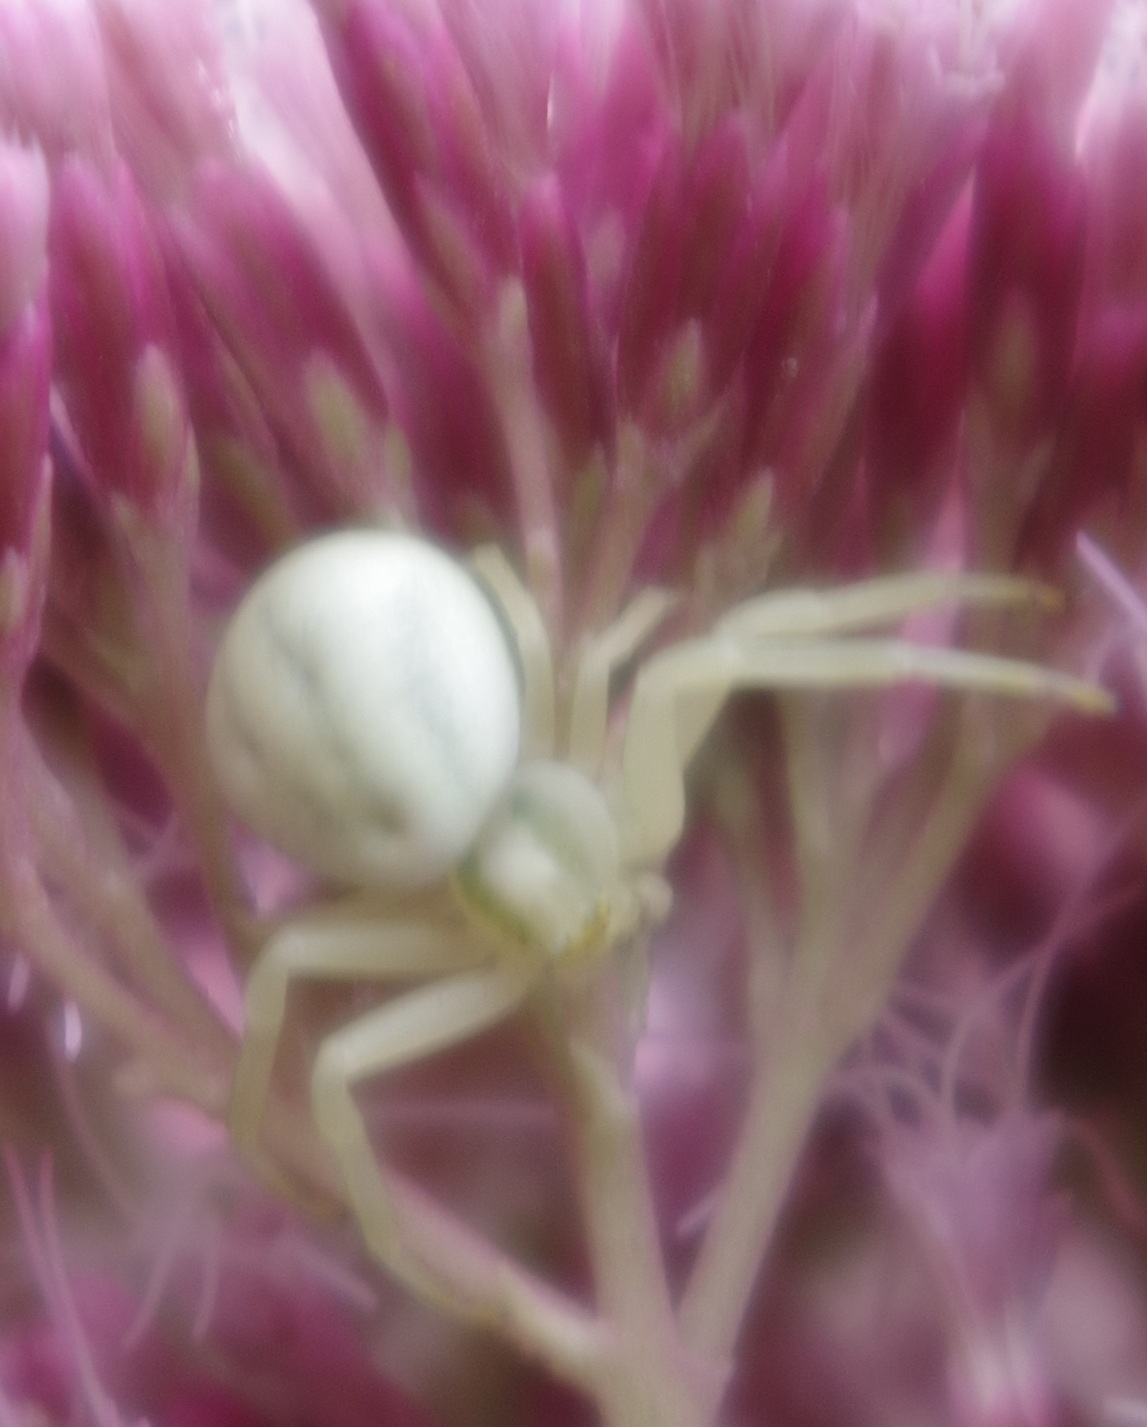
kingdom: Animalia
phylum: Arthropoda
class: Arachnida
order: Araneae
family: Thomisidae
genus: Misumena
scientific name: Misumena vatia
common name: Goldenrod crab spider
